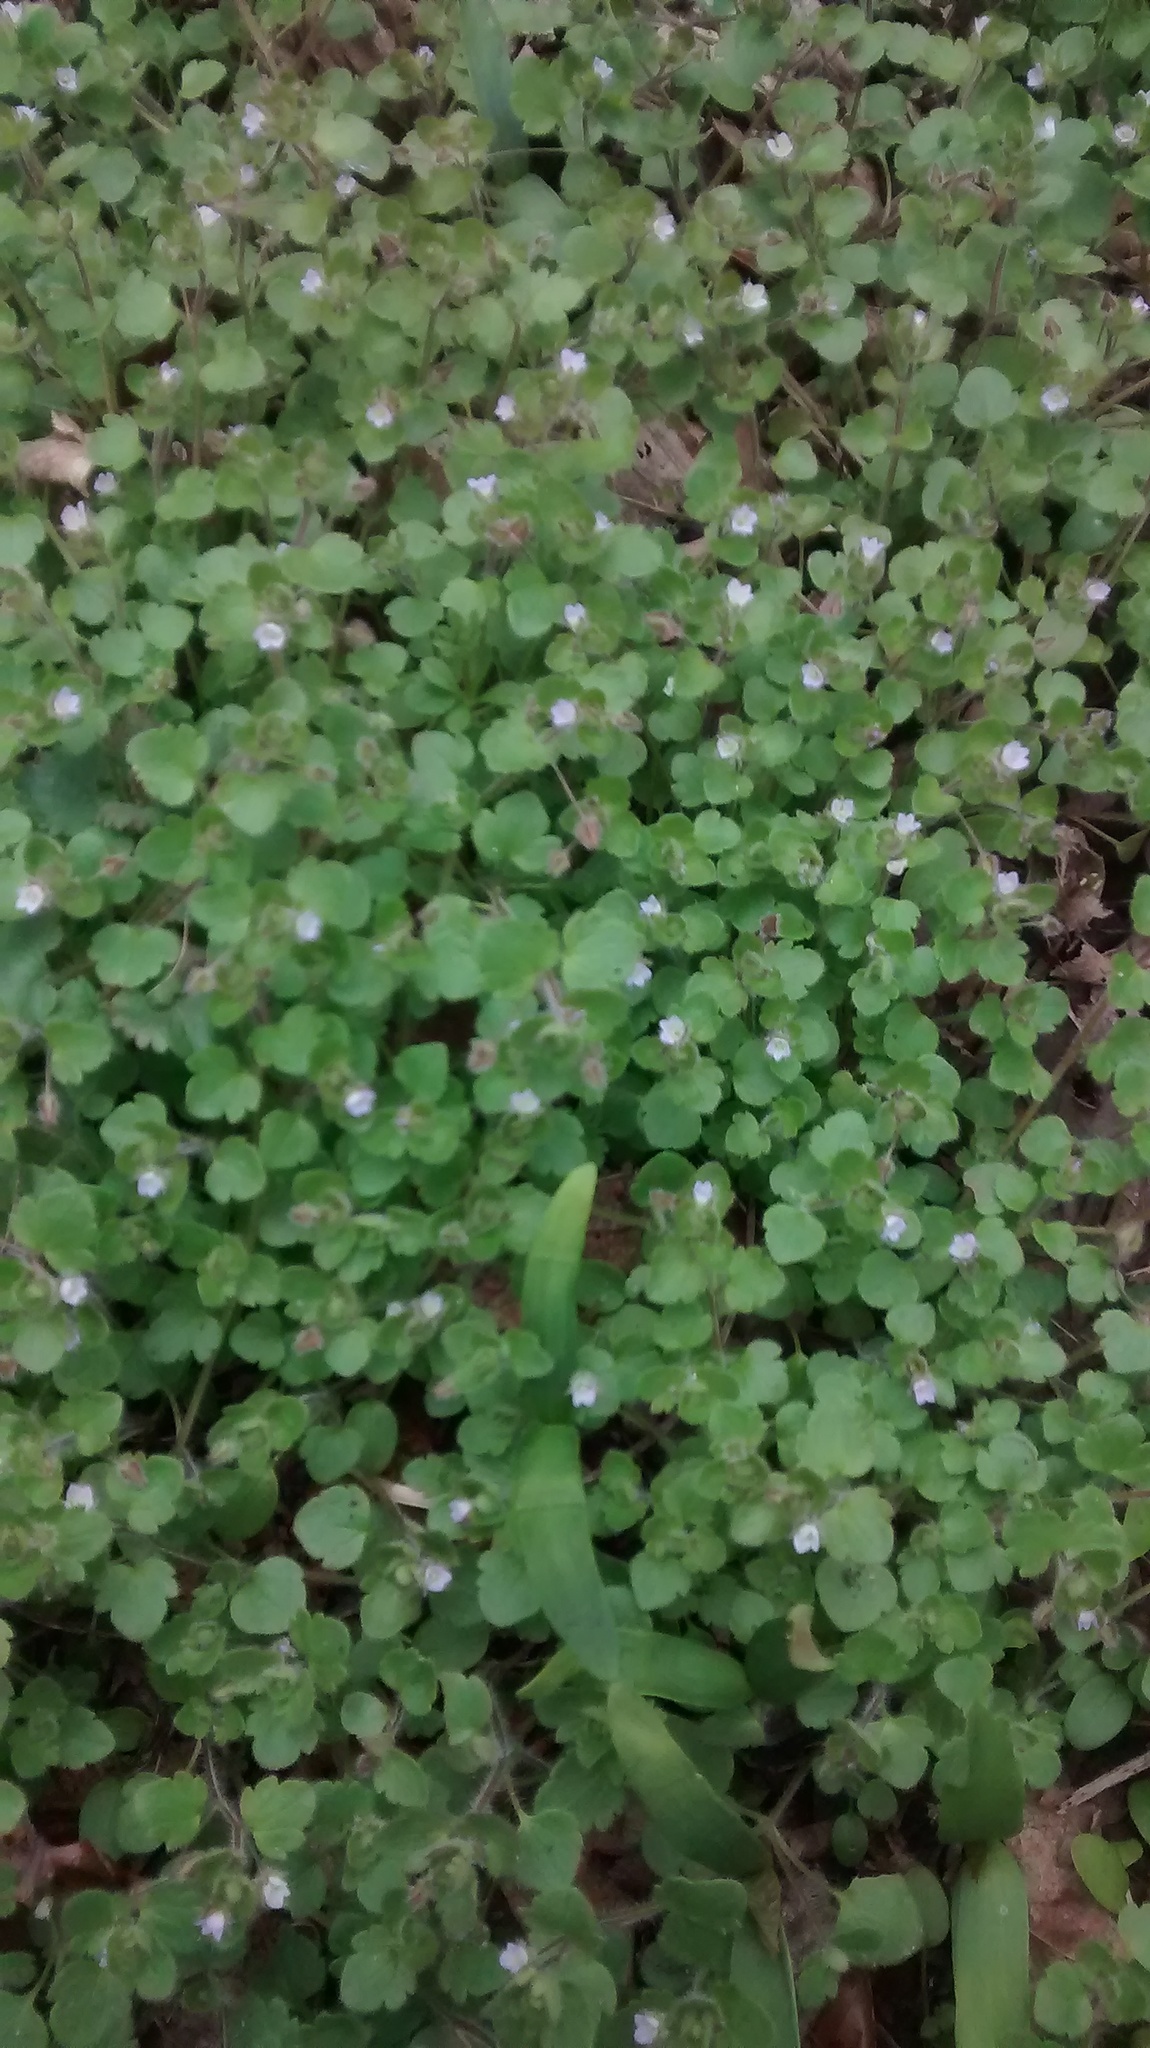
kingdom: Plantae
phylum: Tracheophyta
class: Magnoliopsida
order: Lamiales
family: Plantaginaceae
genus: Veronica
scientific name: Veronica hederifolia
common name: Ivy-leaved speedwell
